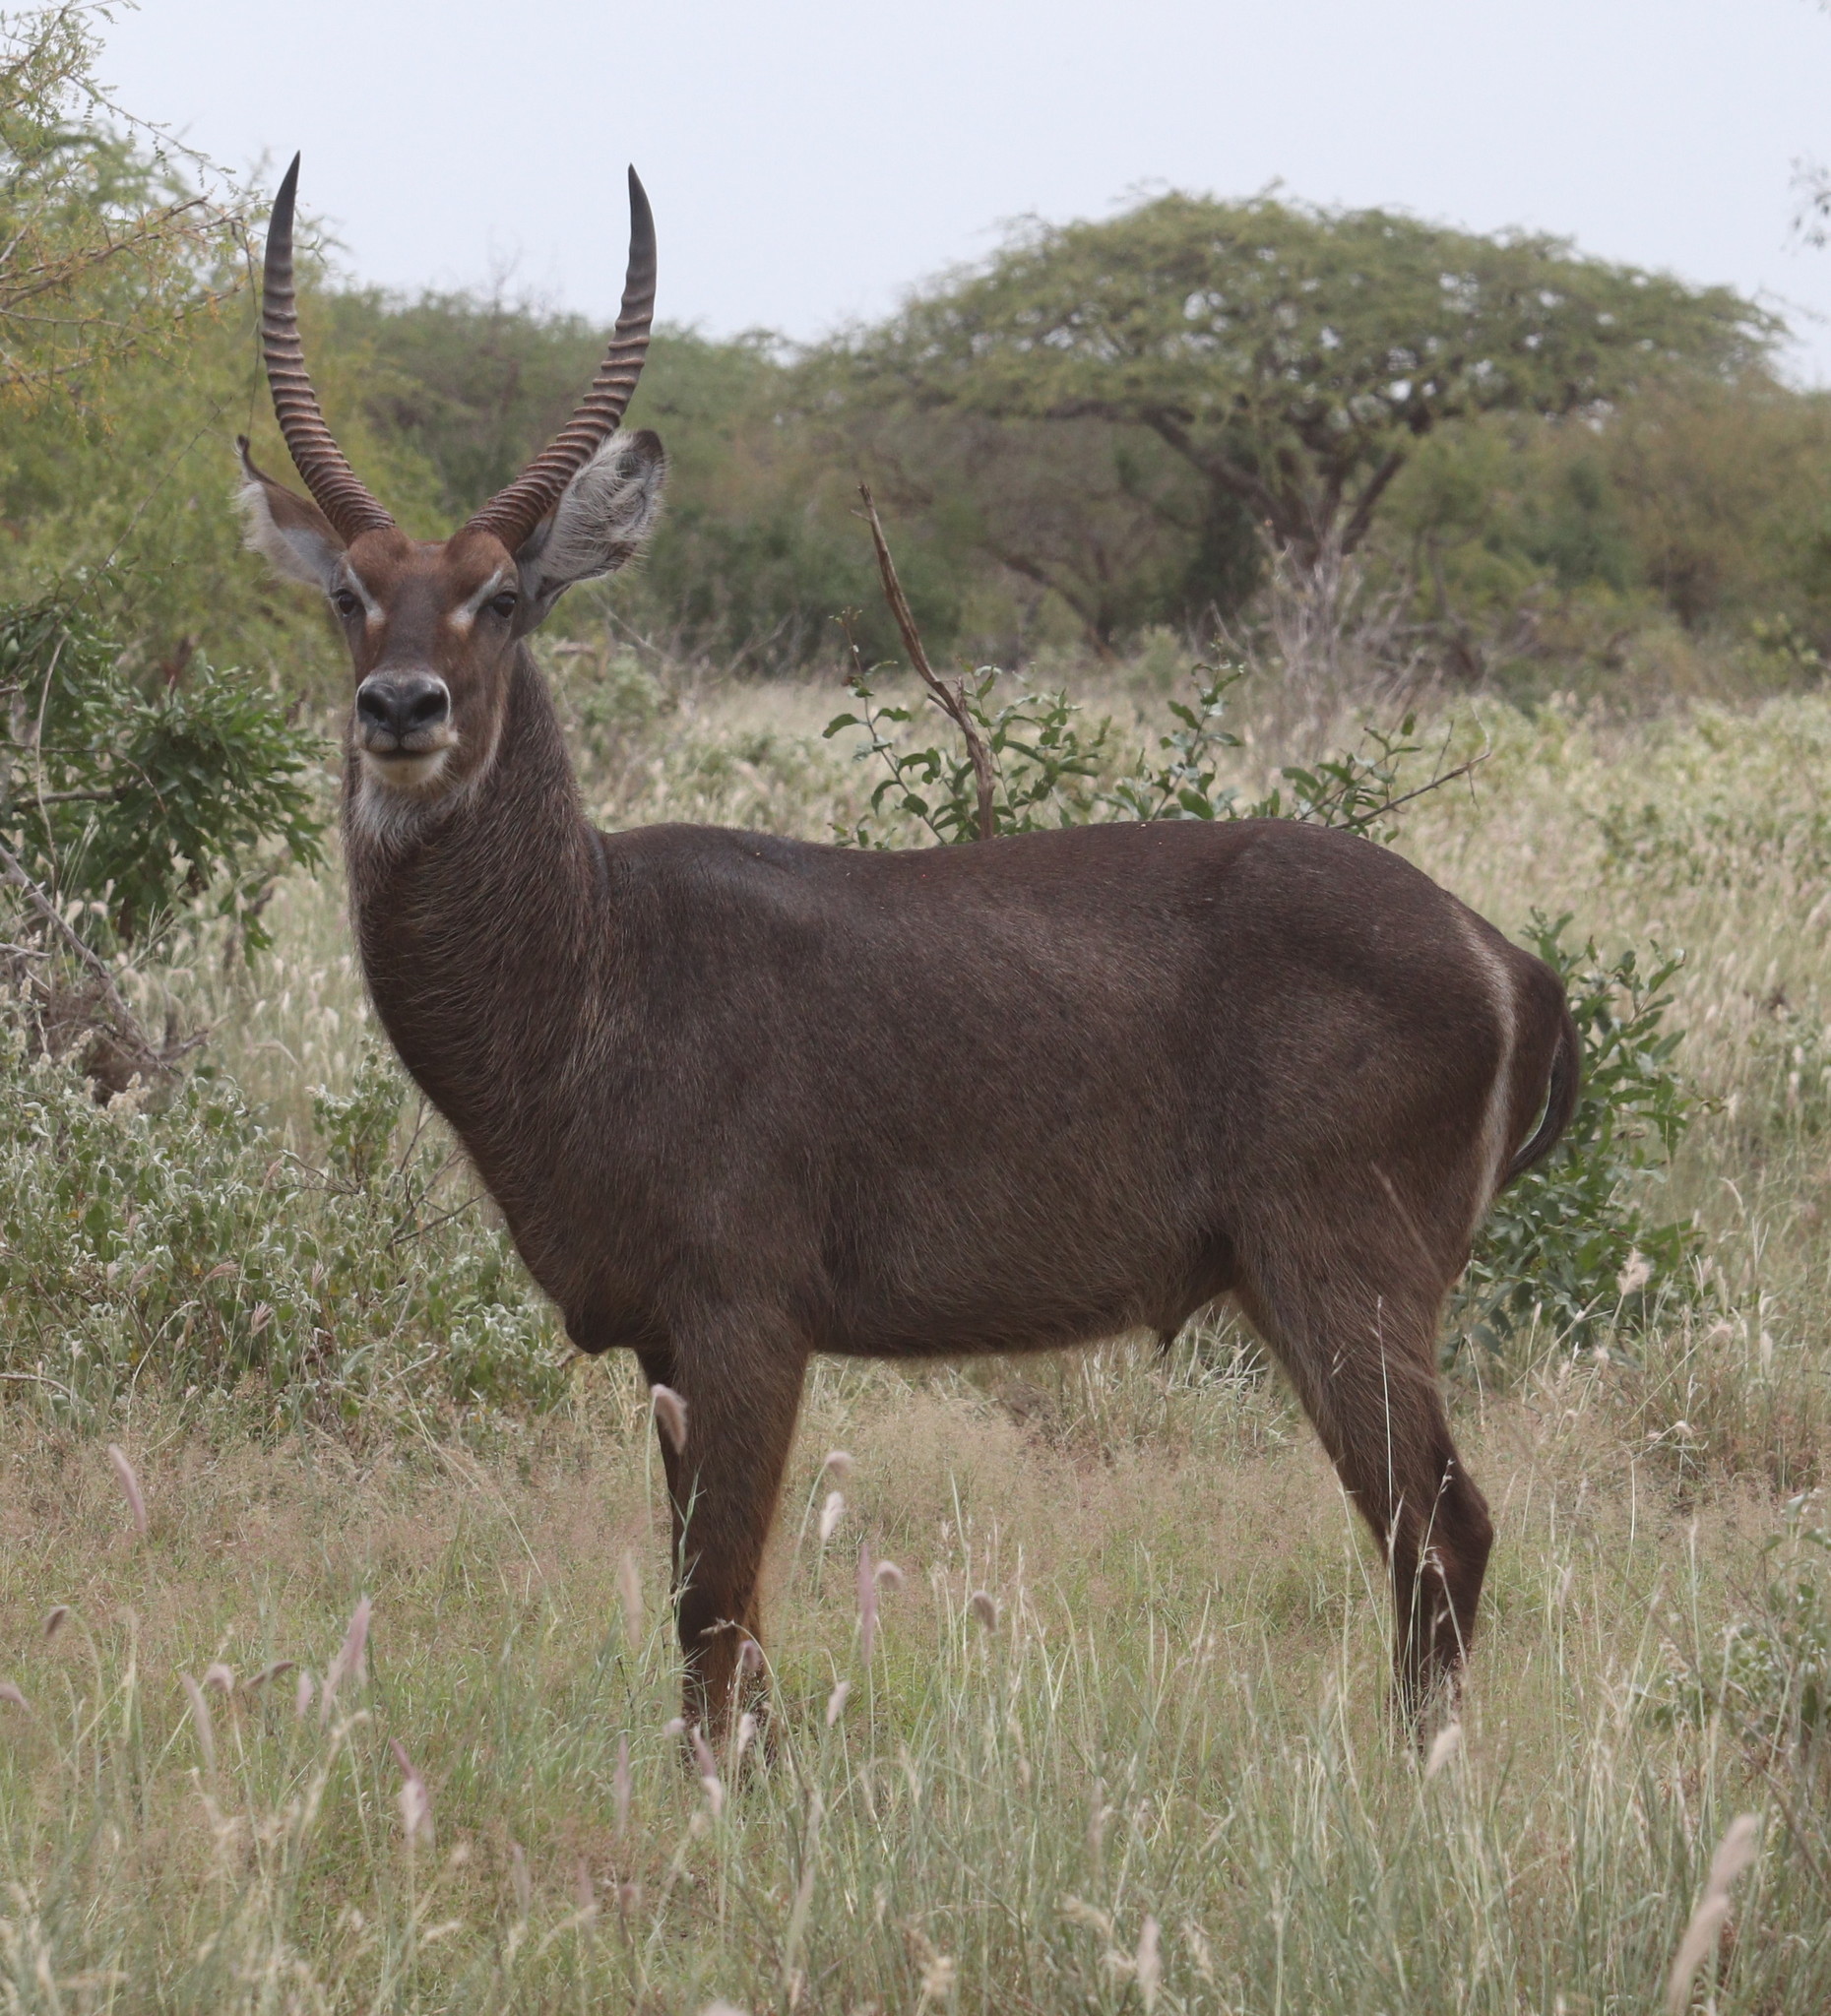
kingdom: Animalia
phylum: Chordata
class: Mammalia
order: Artiodactyla
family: Bovidae
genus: Kobus
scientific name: Kobus ellipsiprymnus
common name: Waterbuck
